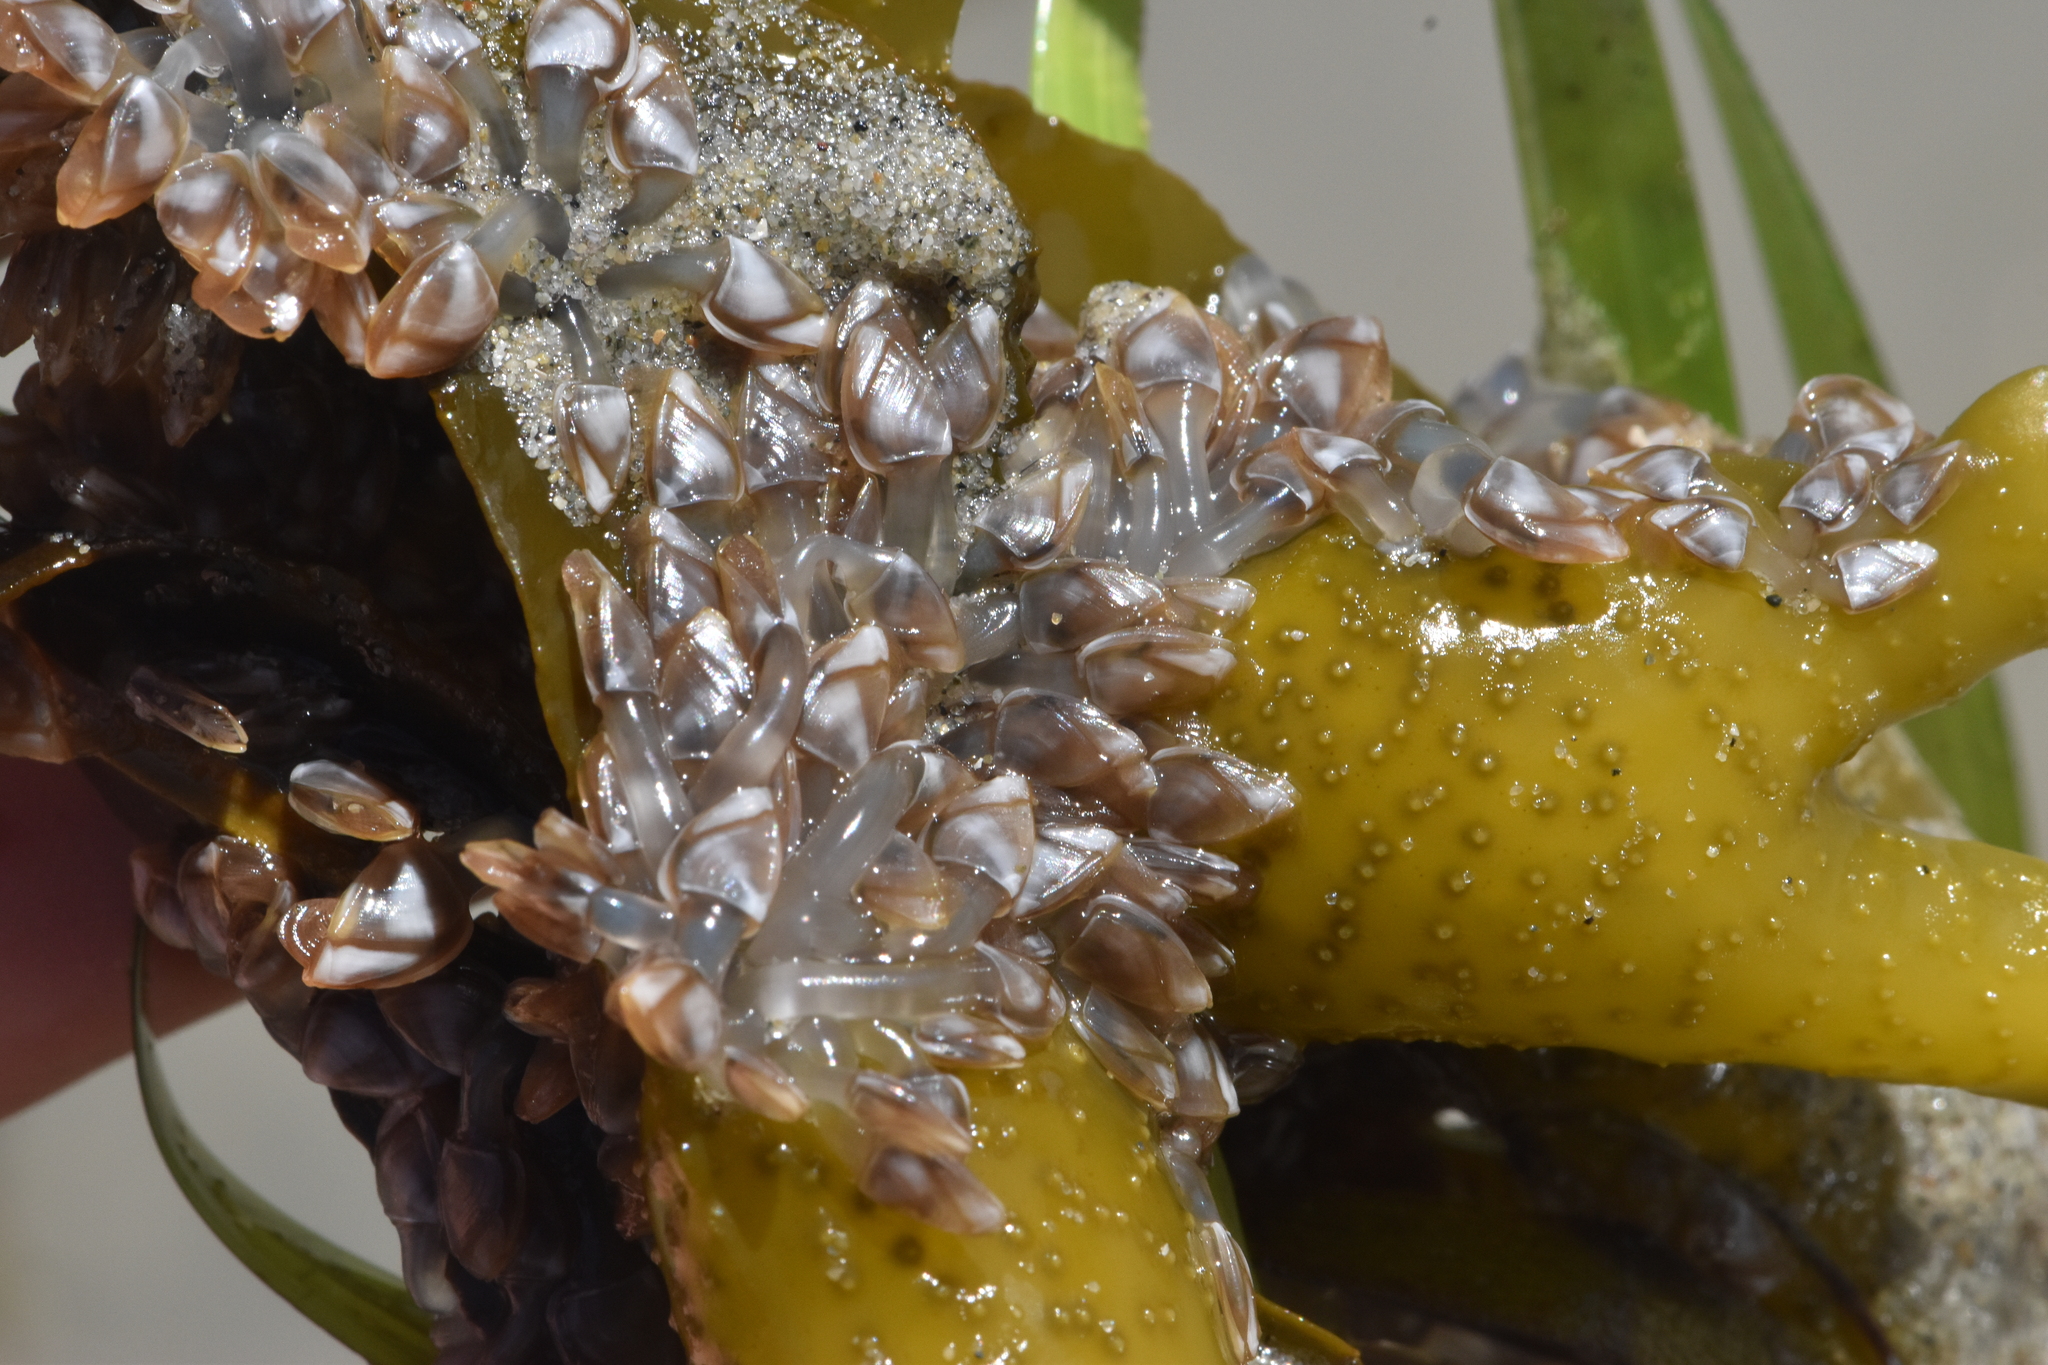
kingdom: Animalia
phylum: Arthropoda
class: Maxillopoda
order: Pedunculata
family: Lepadidae
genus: Lepas
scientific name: Lepas pacifica
